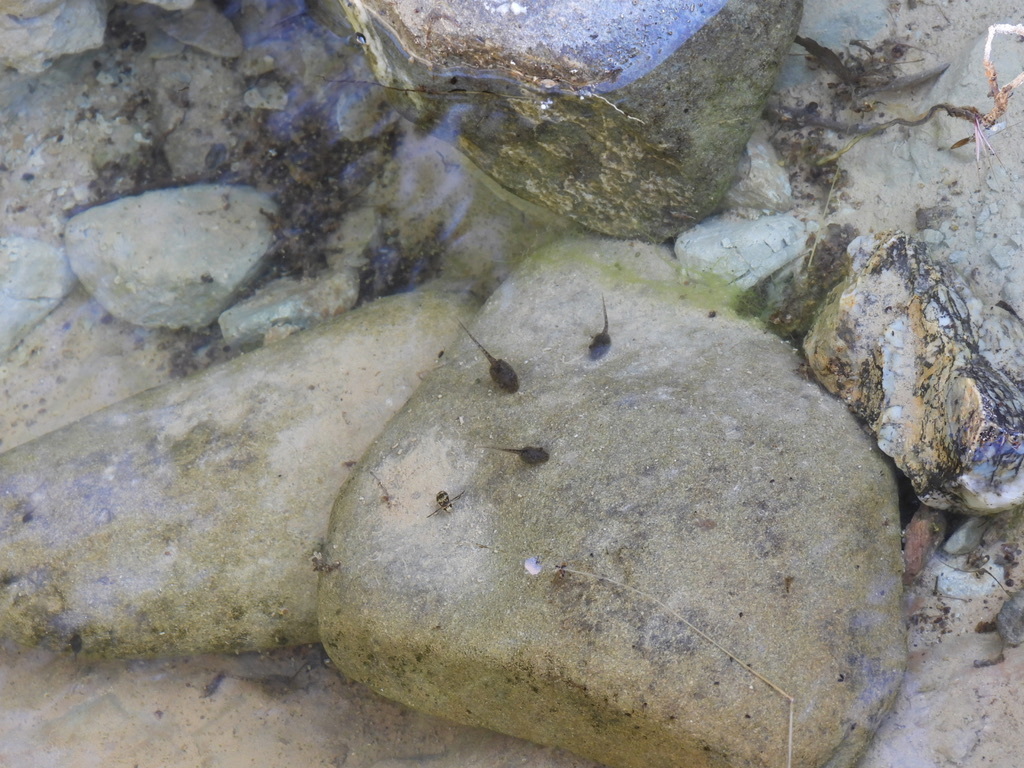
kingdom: Animalia
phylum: Chordata
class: Amphibia
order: Anura
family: Hylidae
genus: Pseudacris
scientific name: Pseudacris regilla
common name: Pacific chorus frog
